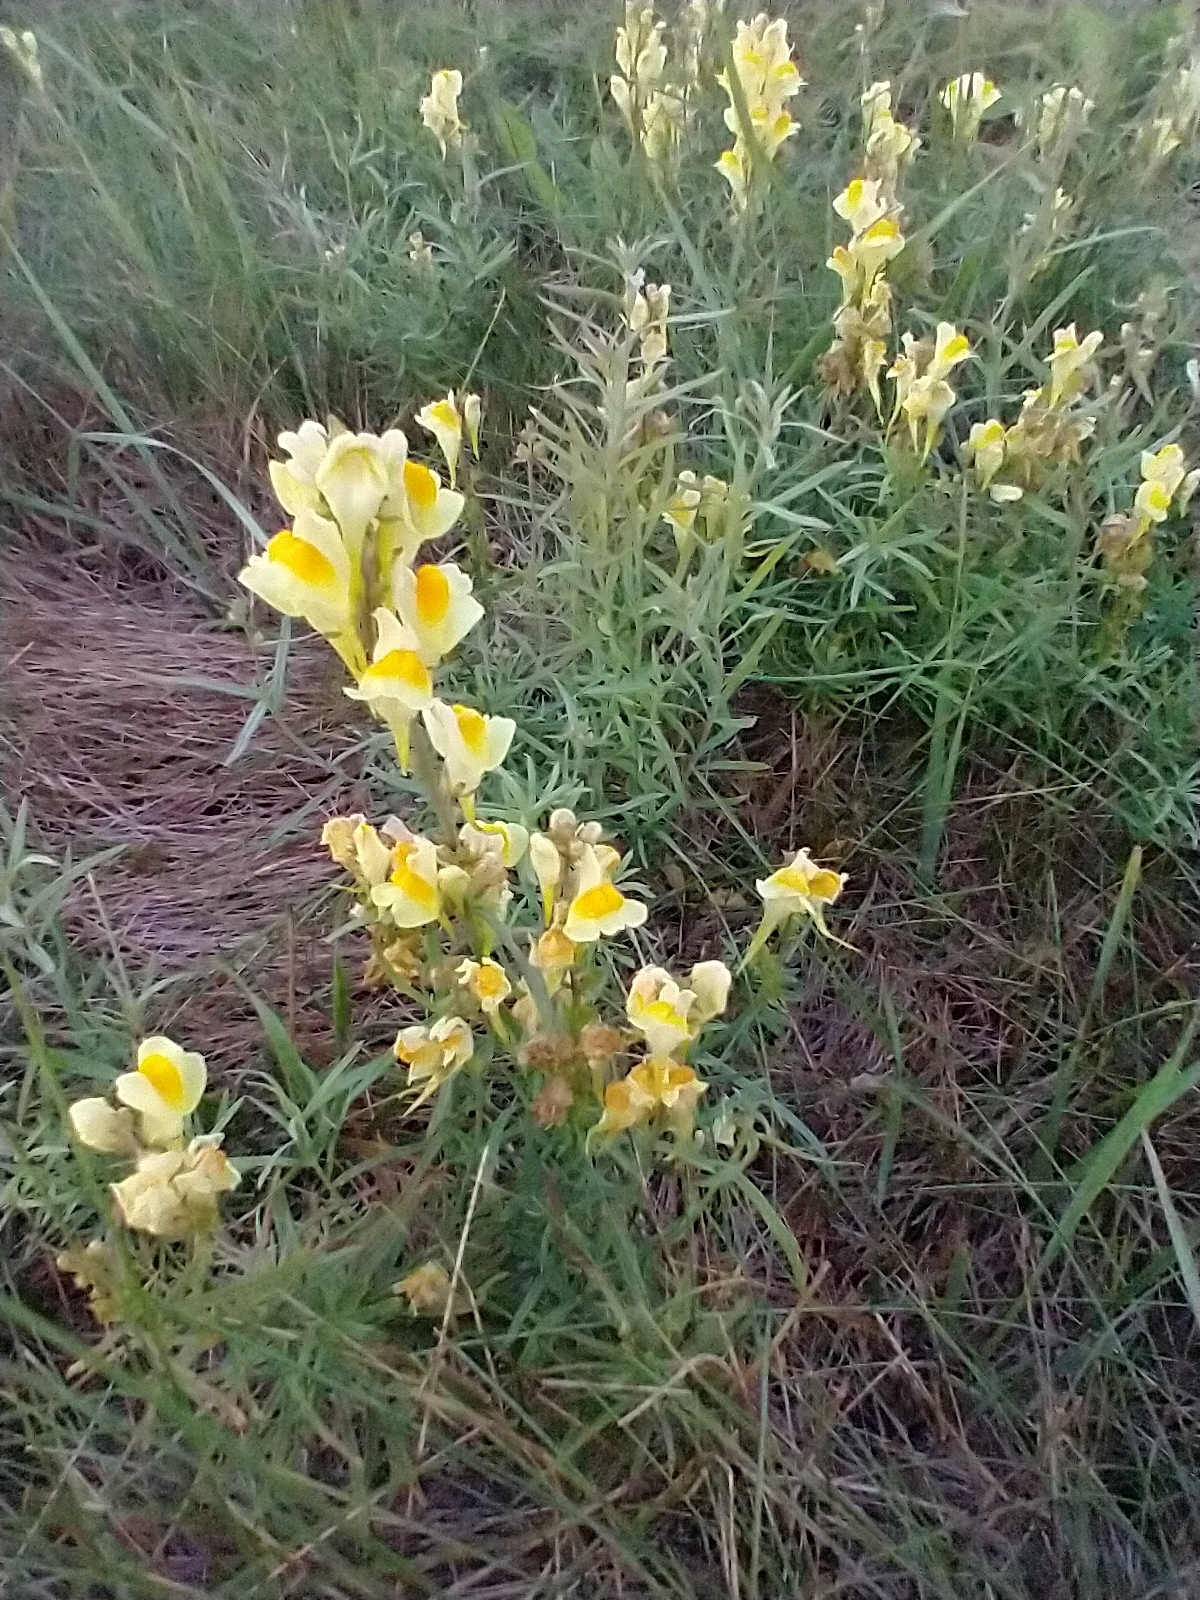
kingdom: Plantae
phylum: Tracheophyta
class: Magnoliopsida
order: Lamiales
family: Plantaginaceae
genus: Linaria
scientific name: Linaria vulgaris
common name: Butter and eggs
